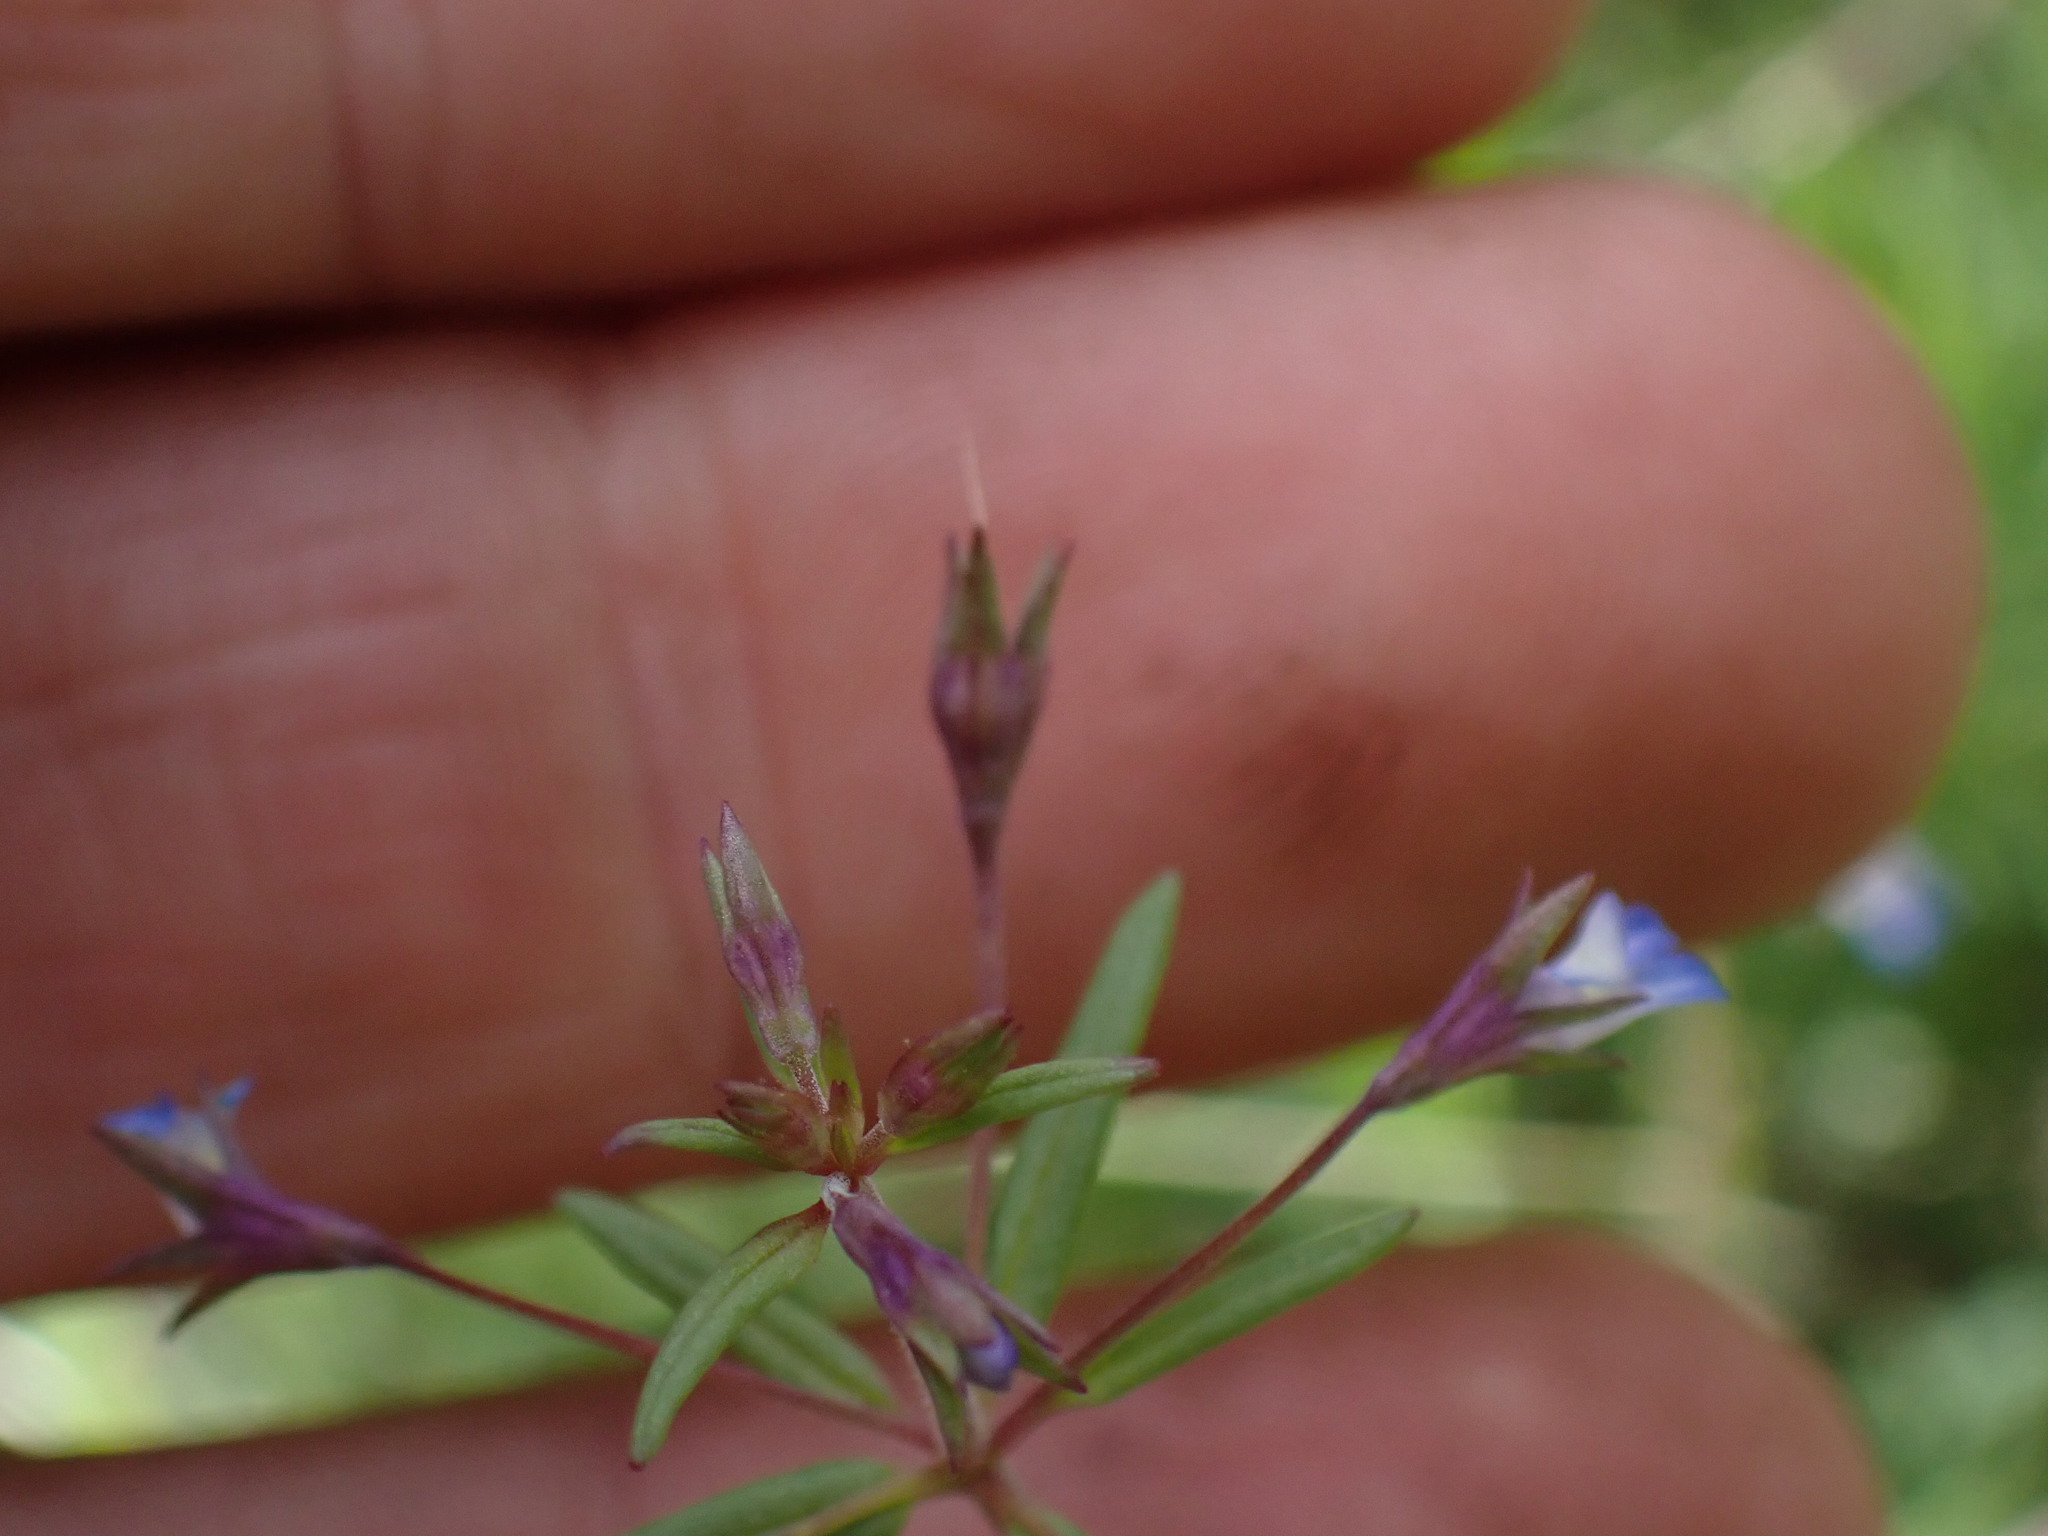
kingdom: Plantae
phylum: Tracheophyta
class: Magnoliopsida
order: Lamiales
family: Plantaginaceae
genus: Collinsia
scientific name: Collinsia parviflora
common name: Blue-lips
